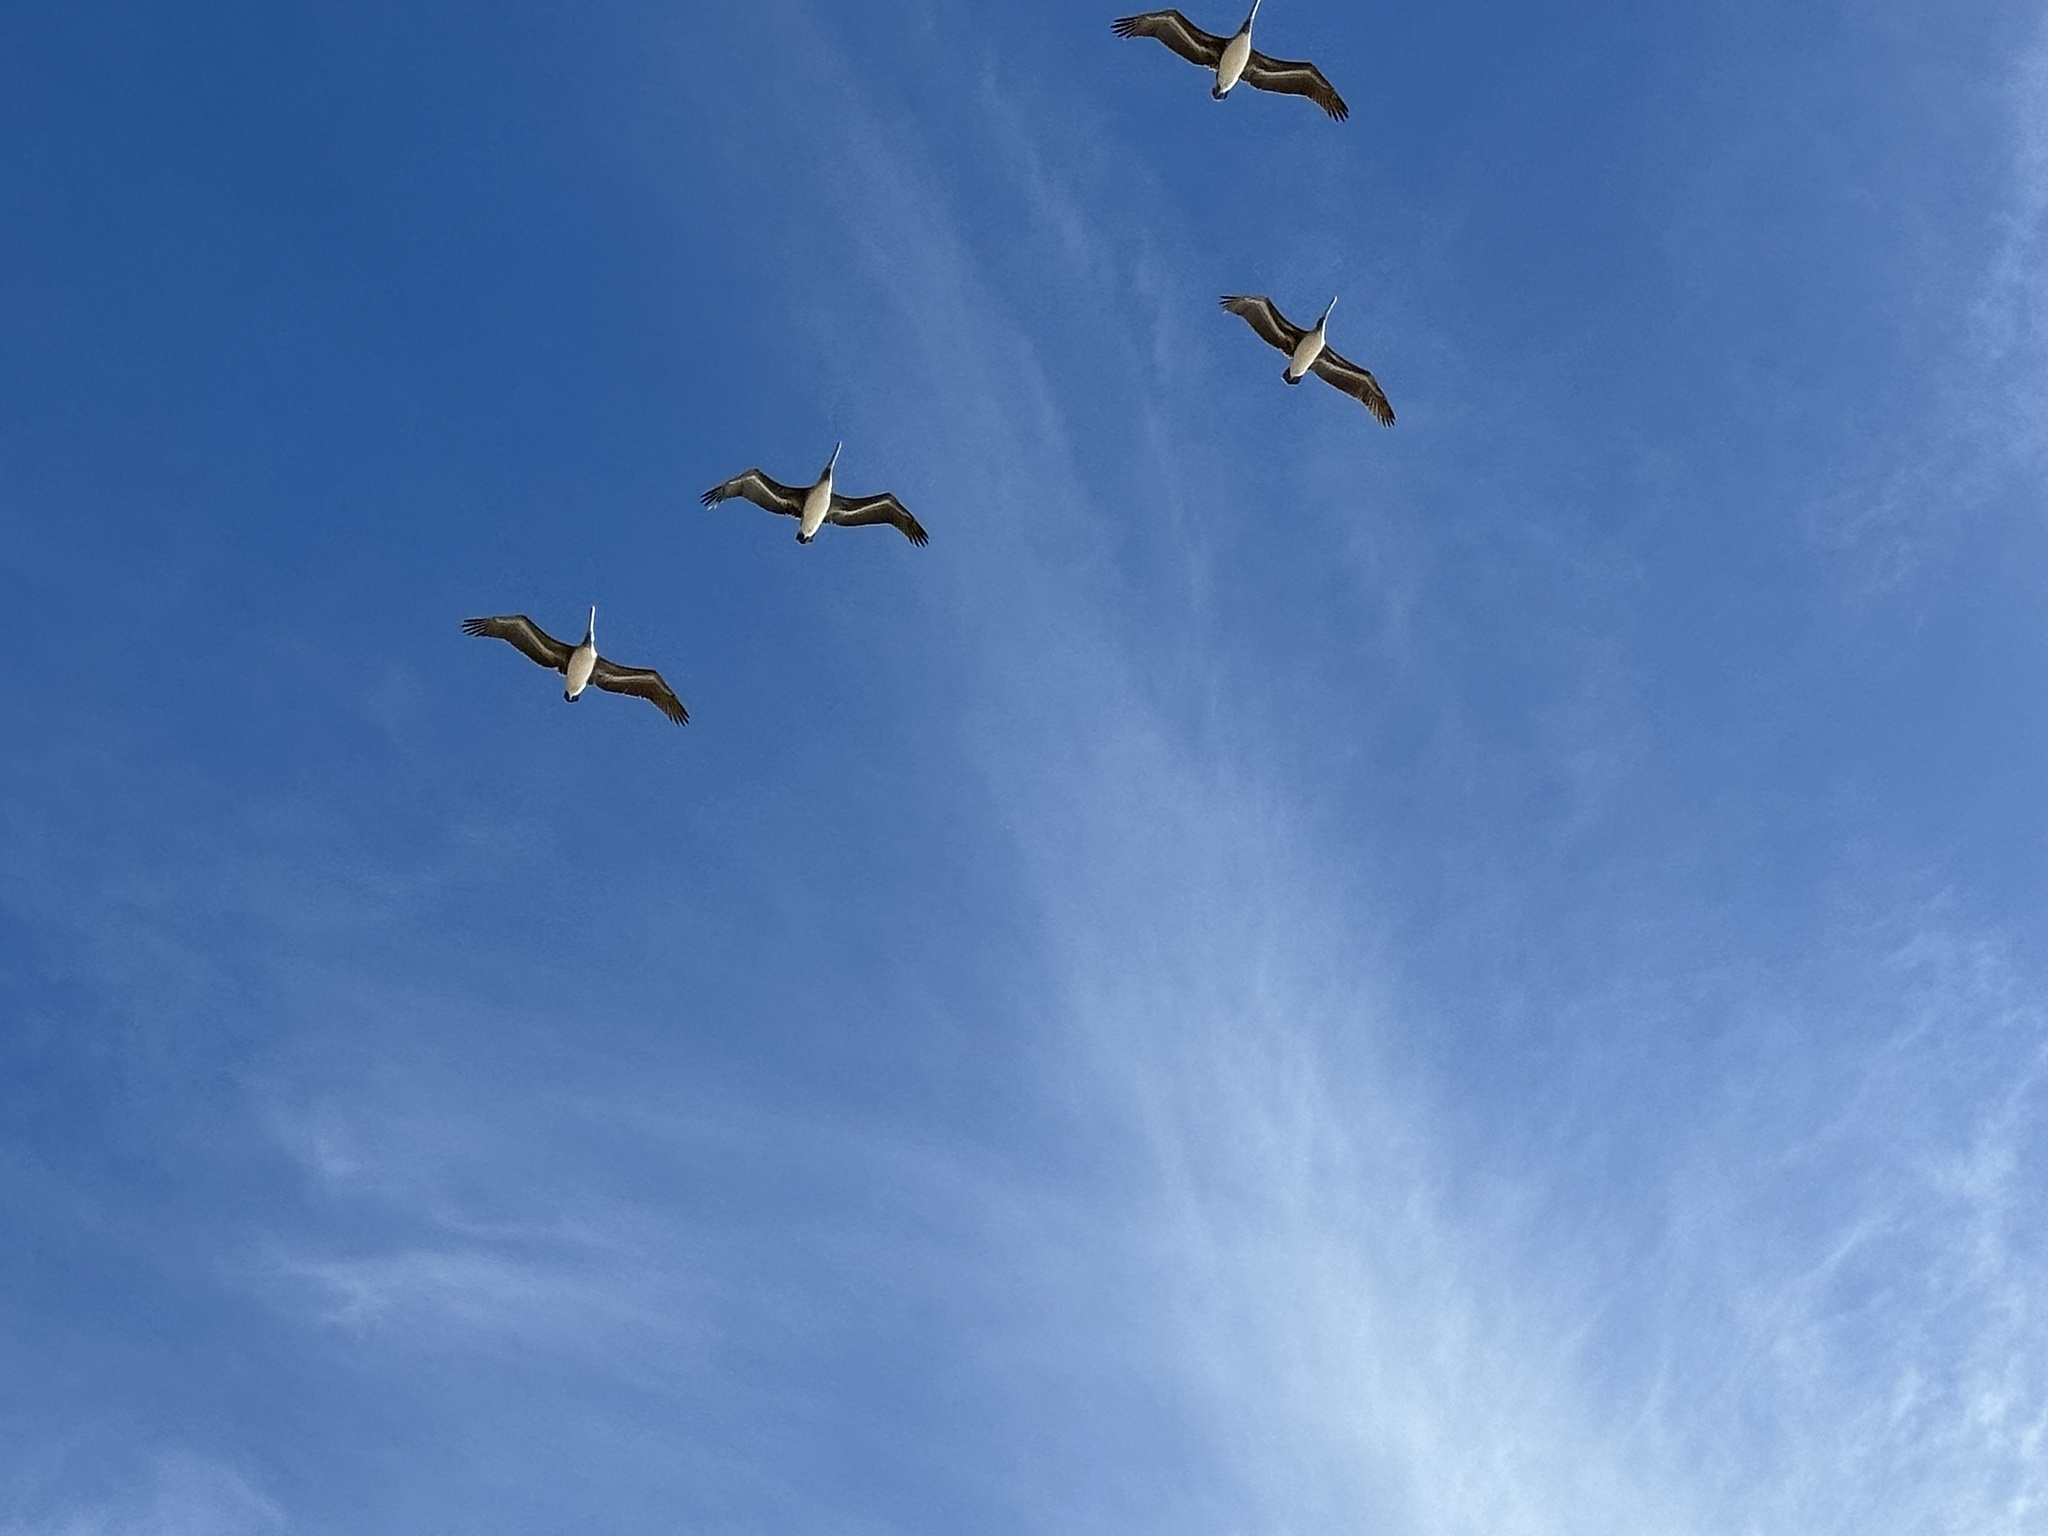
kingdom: Animalia
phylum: Chordata
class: Aves
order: Pelecaniformes
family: Pelecanidae
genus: Pelecanus
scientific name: Pelecanus occidentalis
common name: Brown pelican
